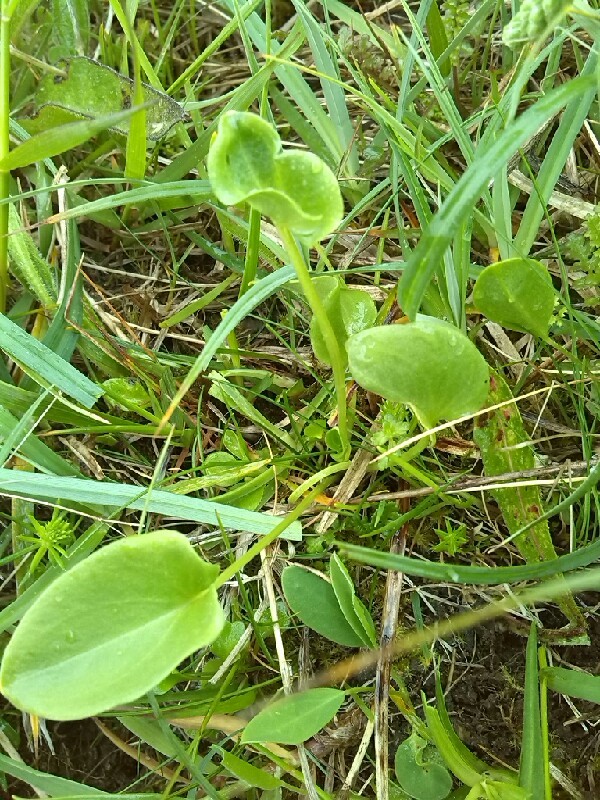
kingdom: Plantae
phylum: Tracheophyta
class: Magnoliopsida
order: Celastrales
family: Parnassiaceae
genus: Parnassia
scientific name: Parnassia palustris
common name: Grass-of-parnassus
